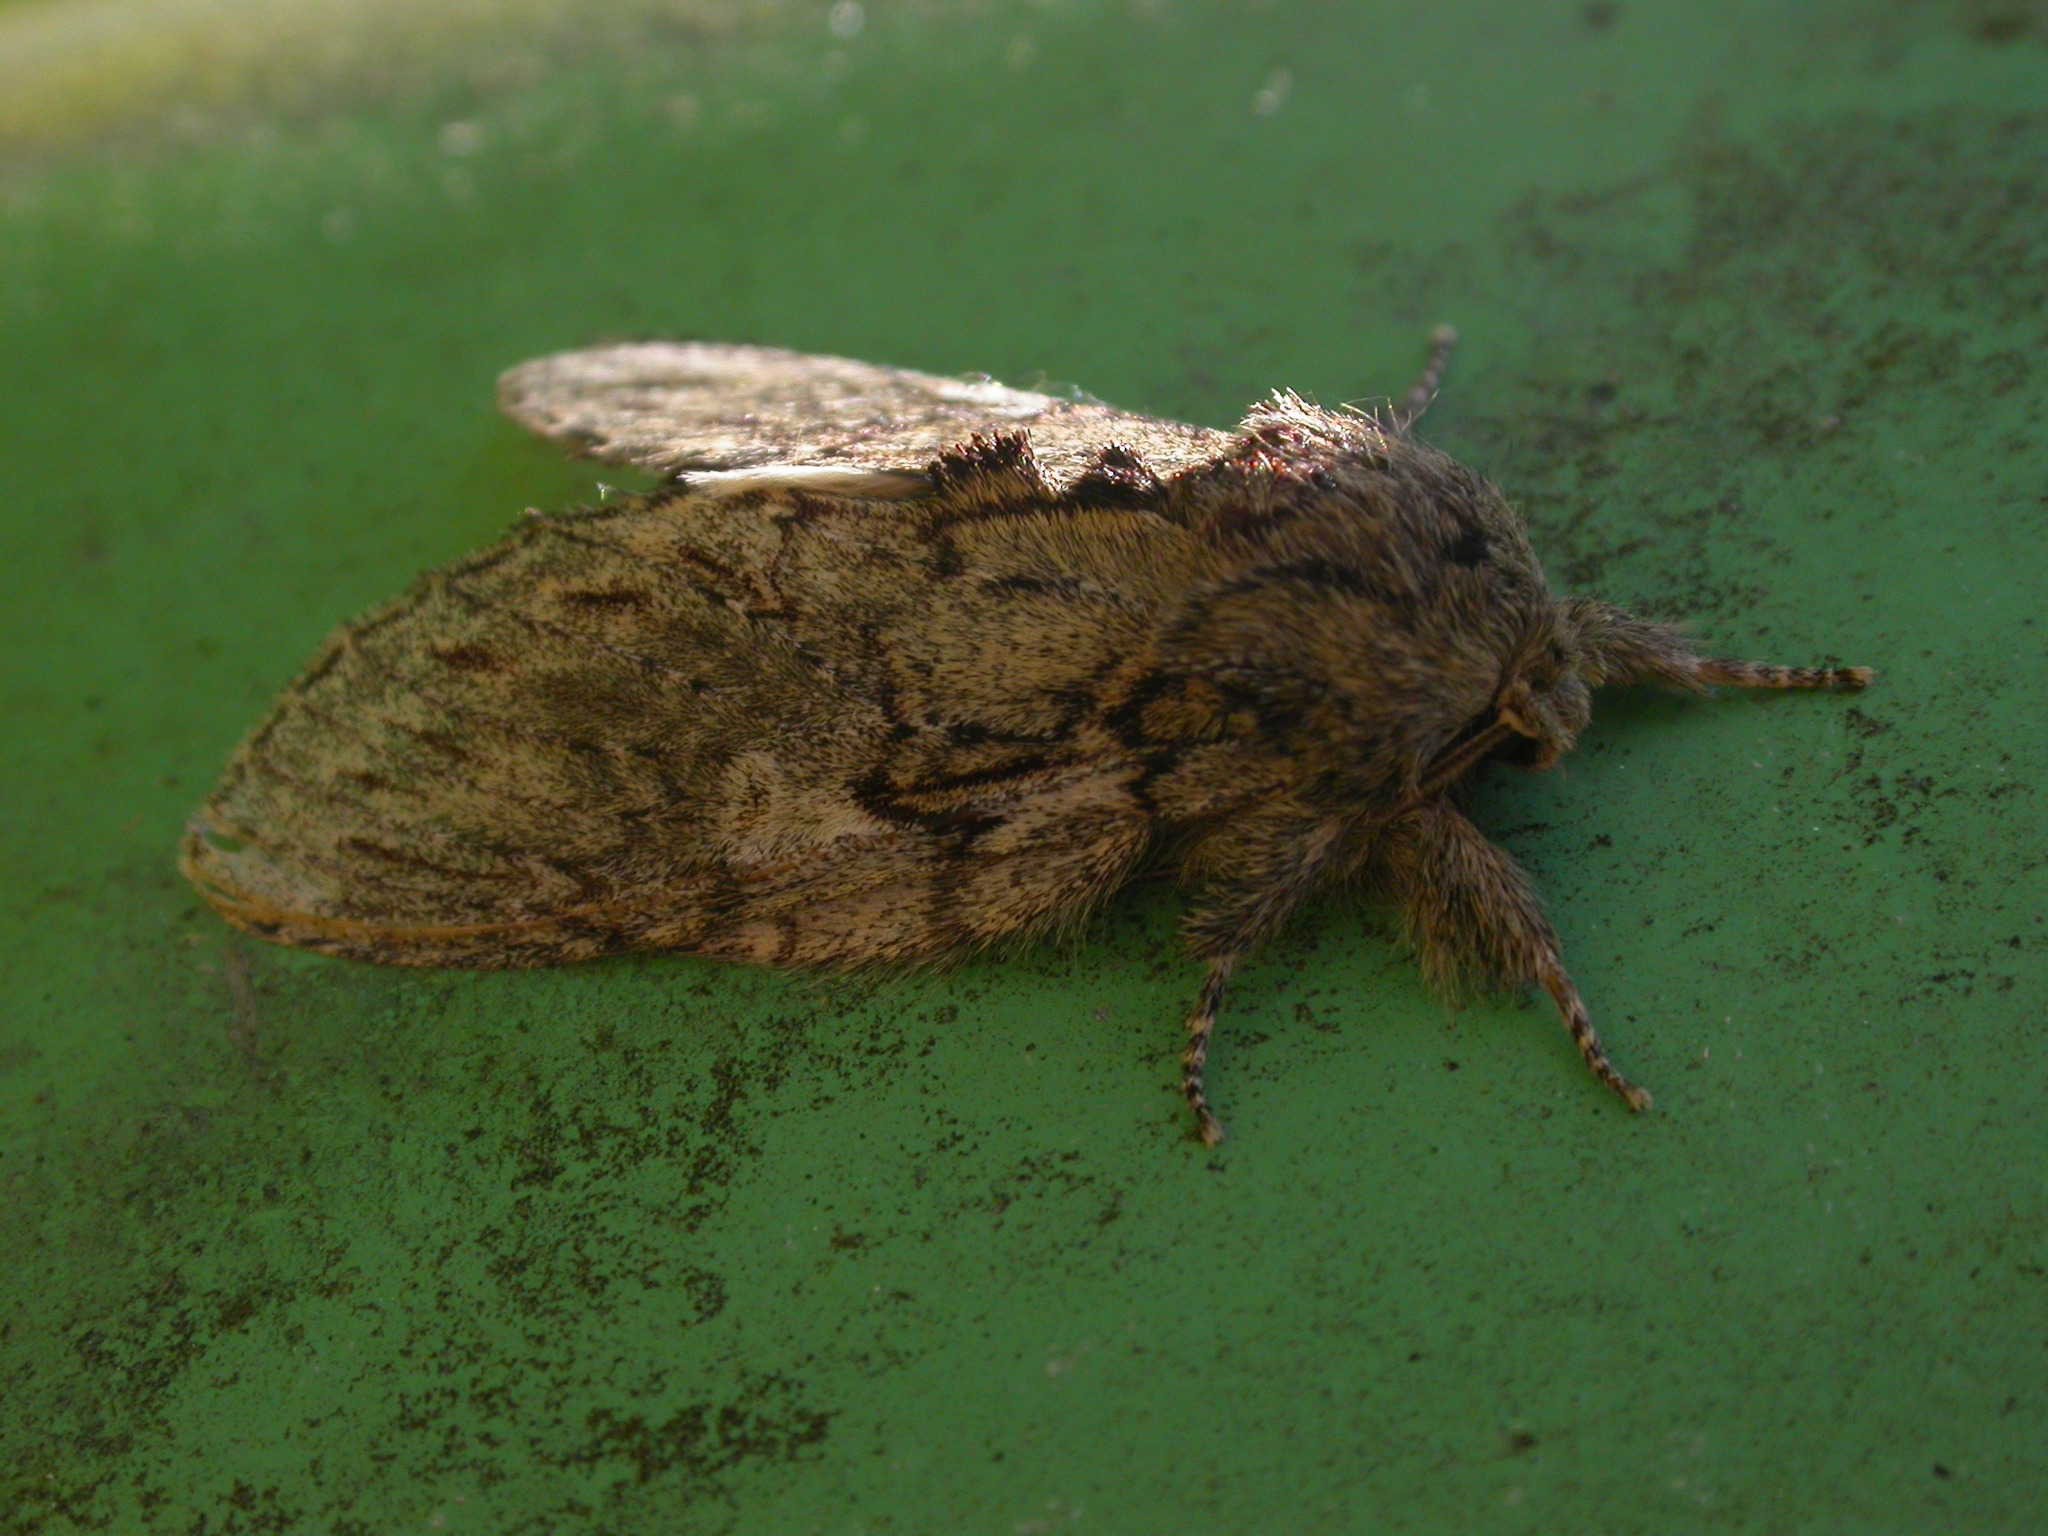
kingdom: Animalia
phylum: Arthropoda
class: Insecta
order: Lepidoptera
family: Notodontidae
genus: Peridea
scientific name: Peridea anceps
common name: Great prominent
